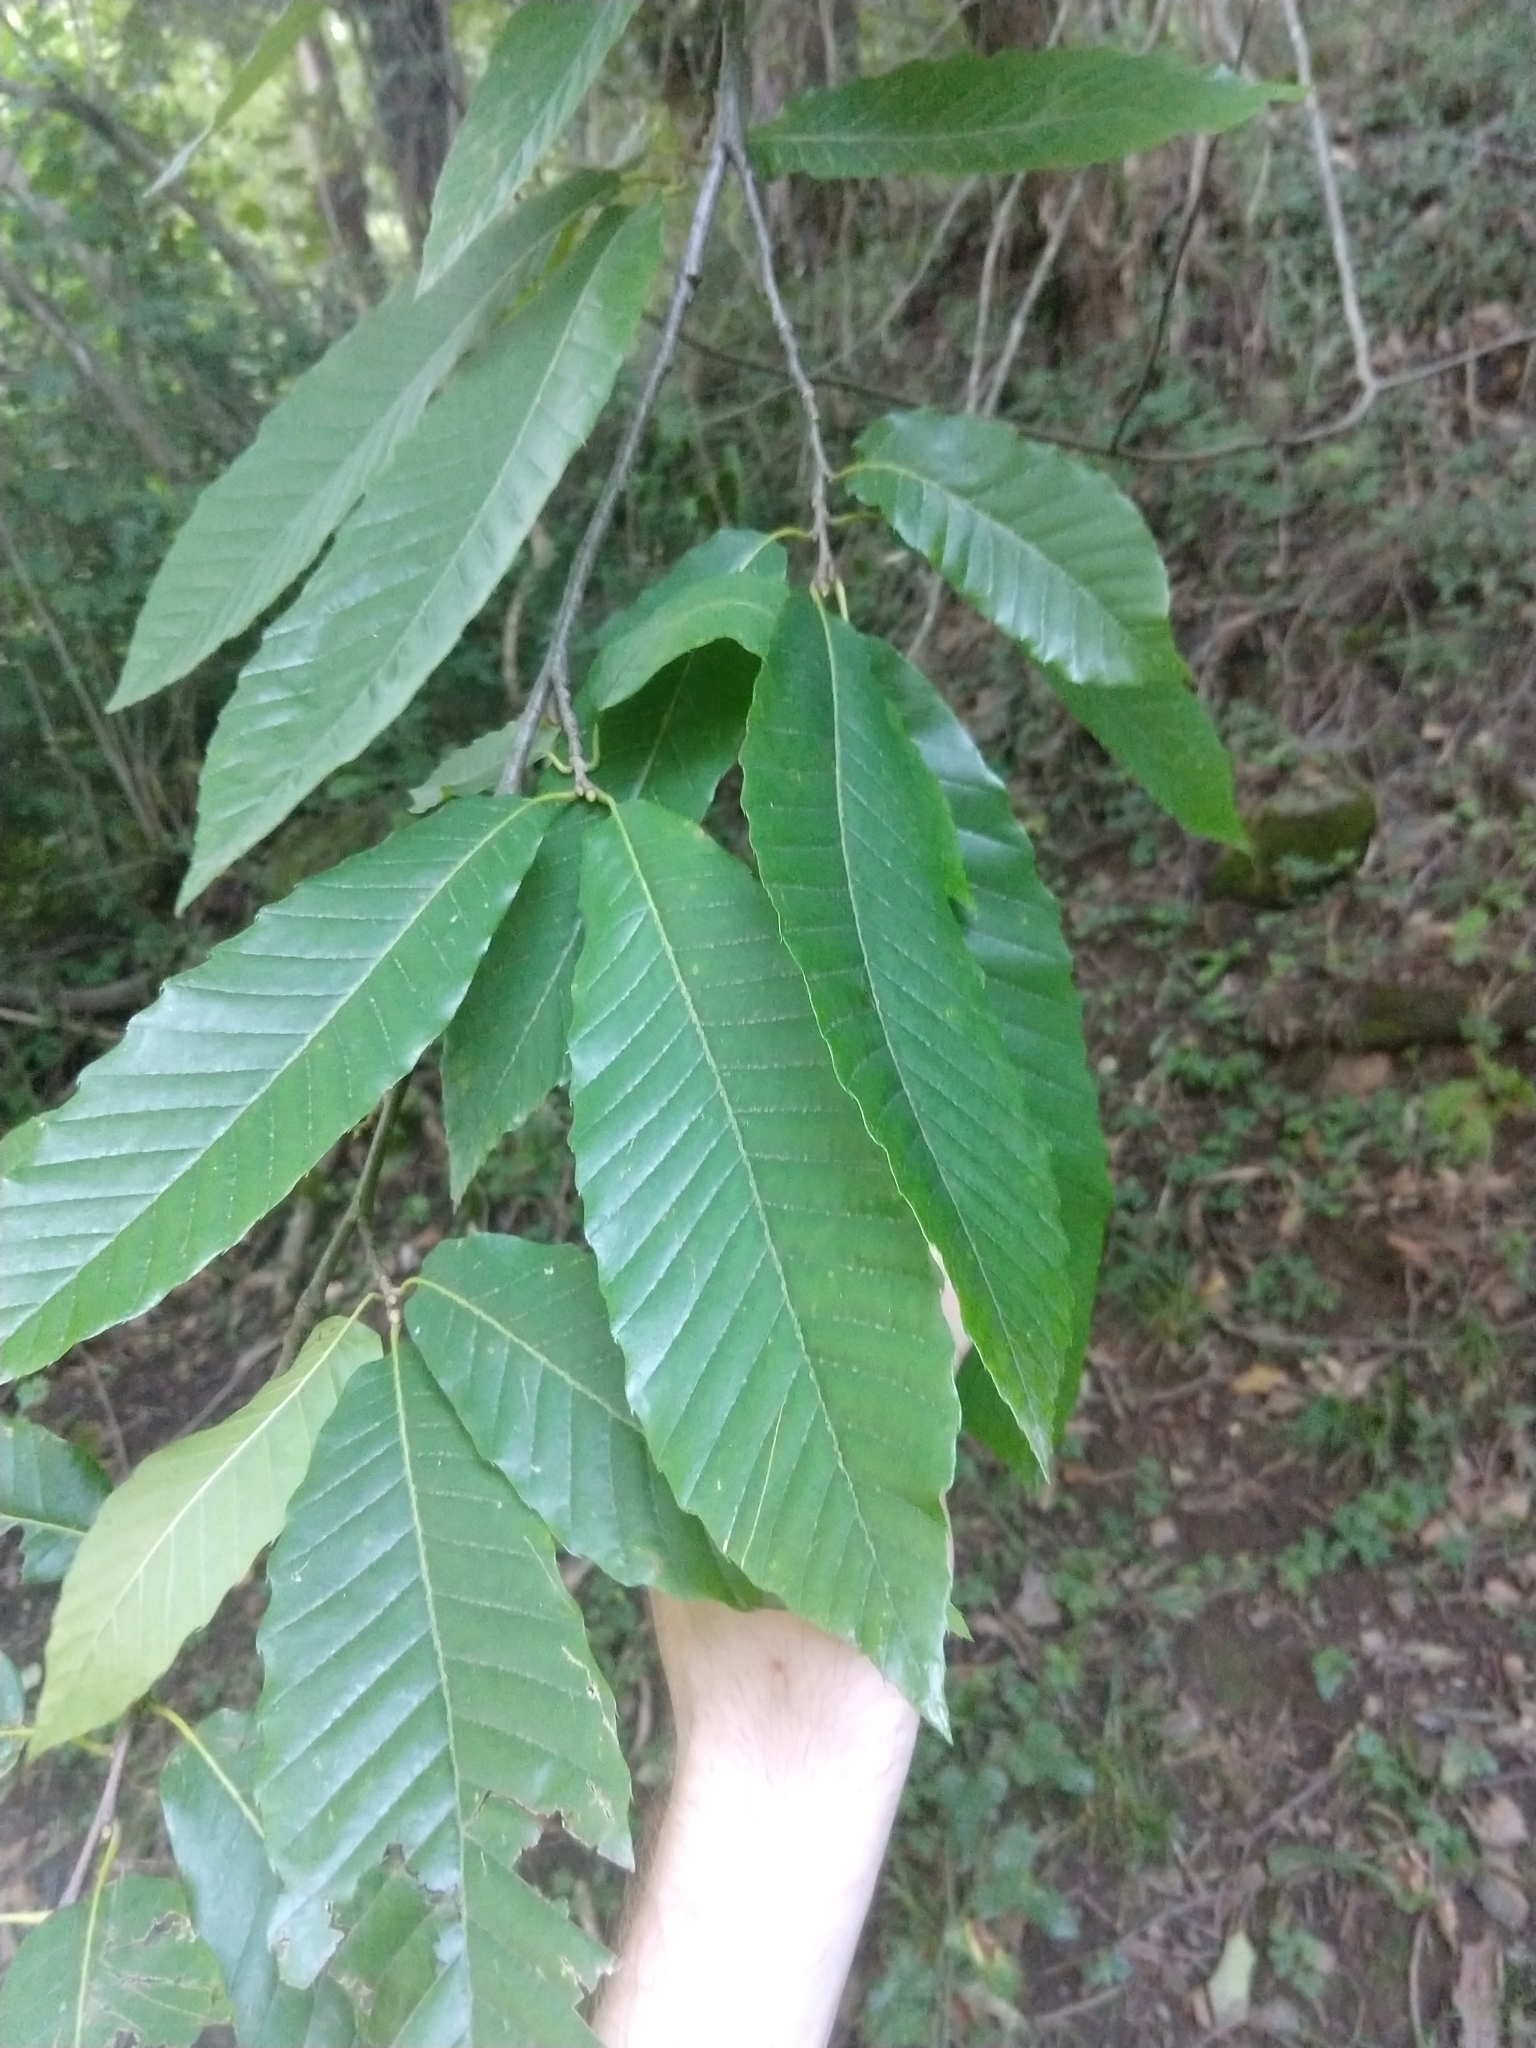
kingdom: Plantae
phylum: Tracheophyta
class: Magnoliopsida
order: Fagales
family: Fagaceae
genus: Castanea
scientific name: Castanea sativa
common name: Sweet chestnut
